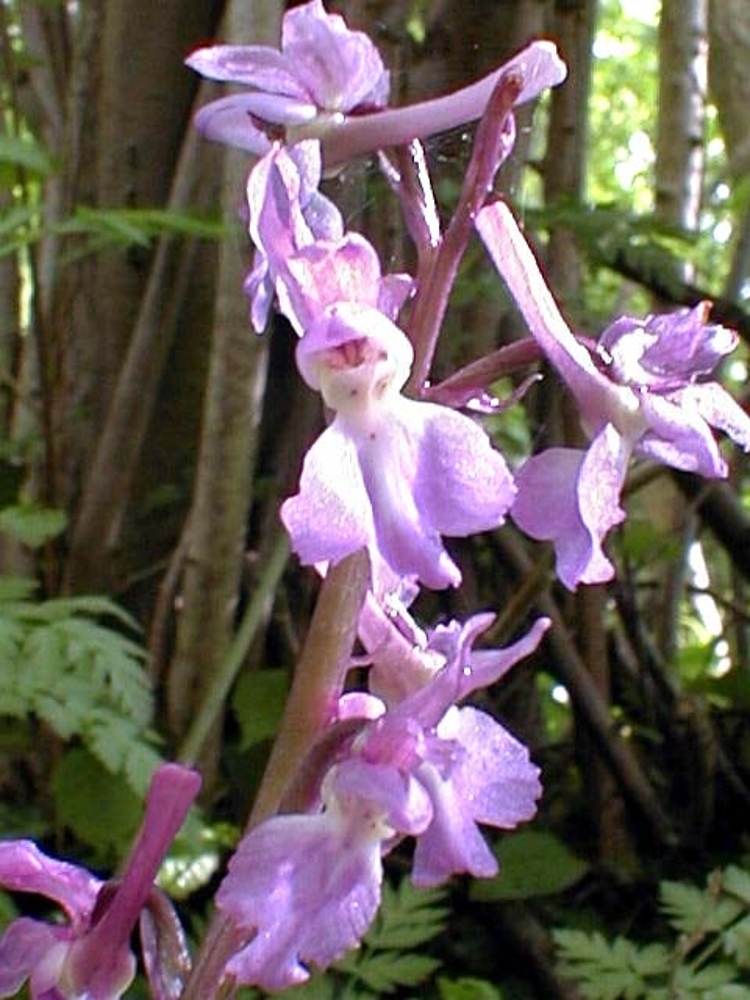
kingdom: Plantae
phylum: Tracheophyta
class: Liliopsida
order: Asparagales
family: Orchidaceae
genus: Orchis
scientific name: Orchis mascula
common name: Early-purple orchid
